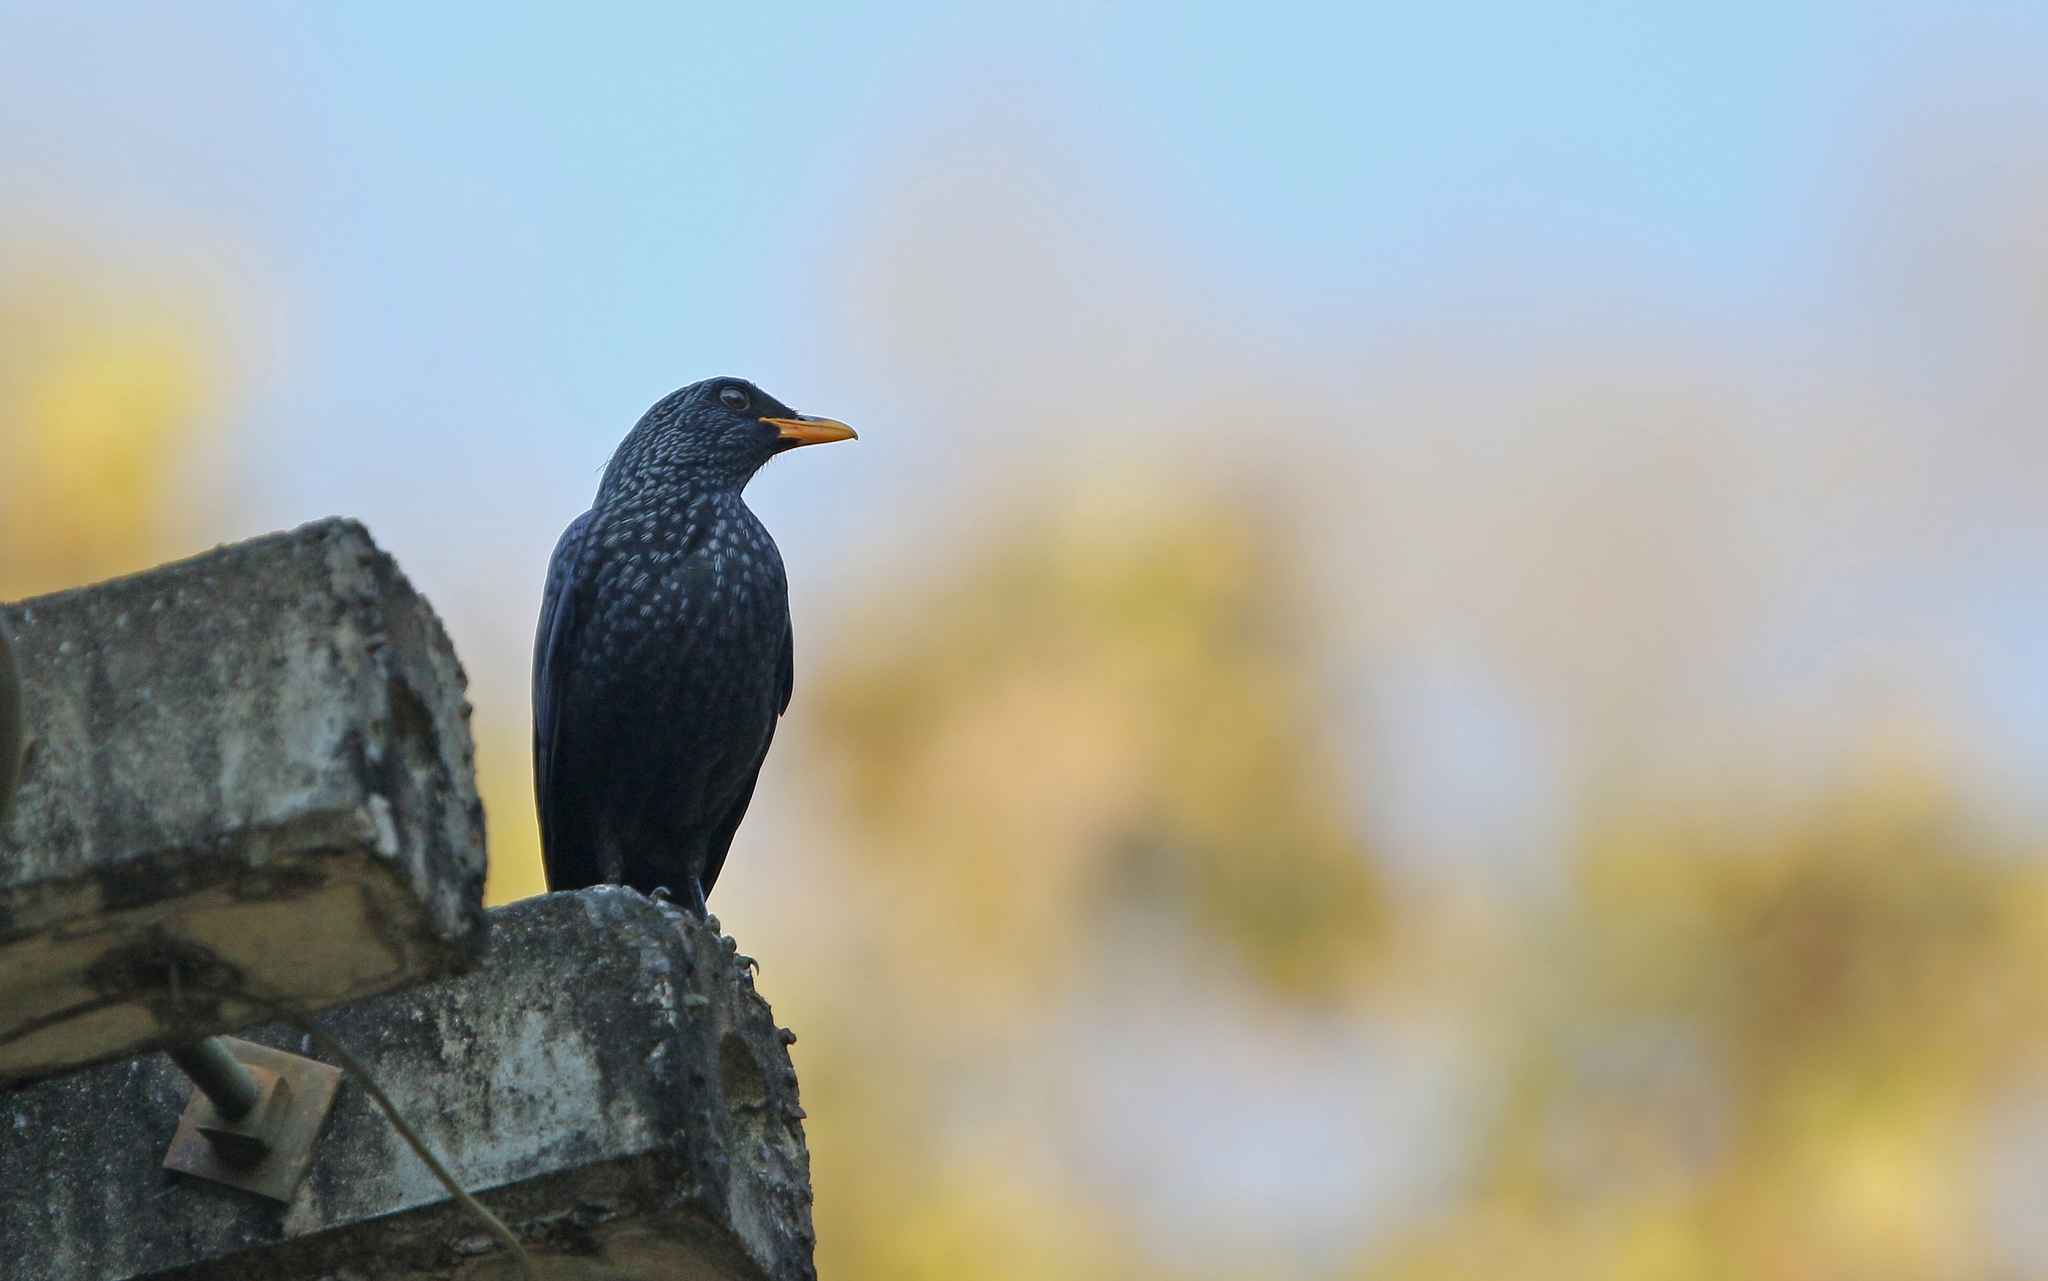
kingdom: Animalia
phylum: Chordata
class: Aves
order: Passeriformes
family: Muscicapidae
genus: Myophonus
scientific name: Myophonus caeruleus
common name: Blue whistling-thrush
